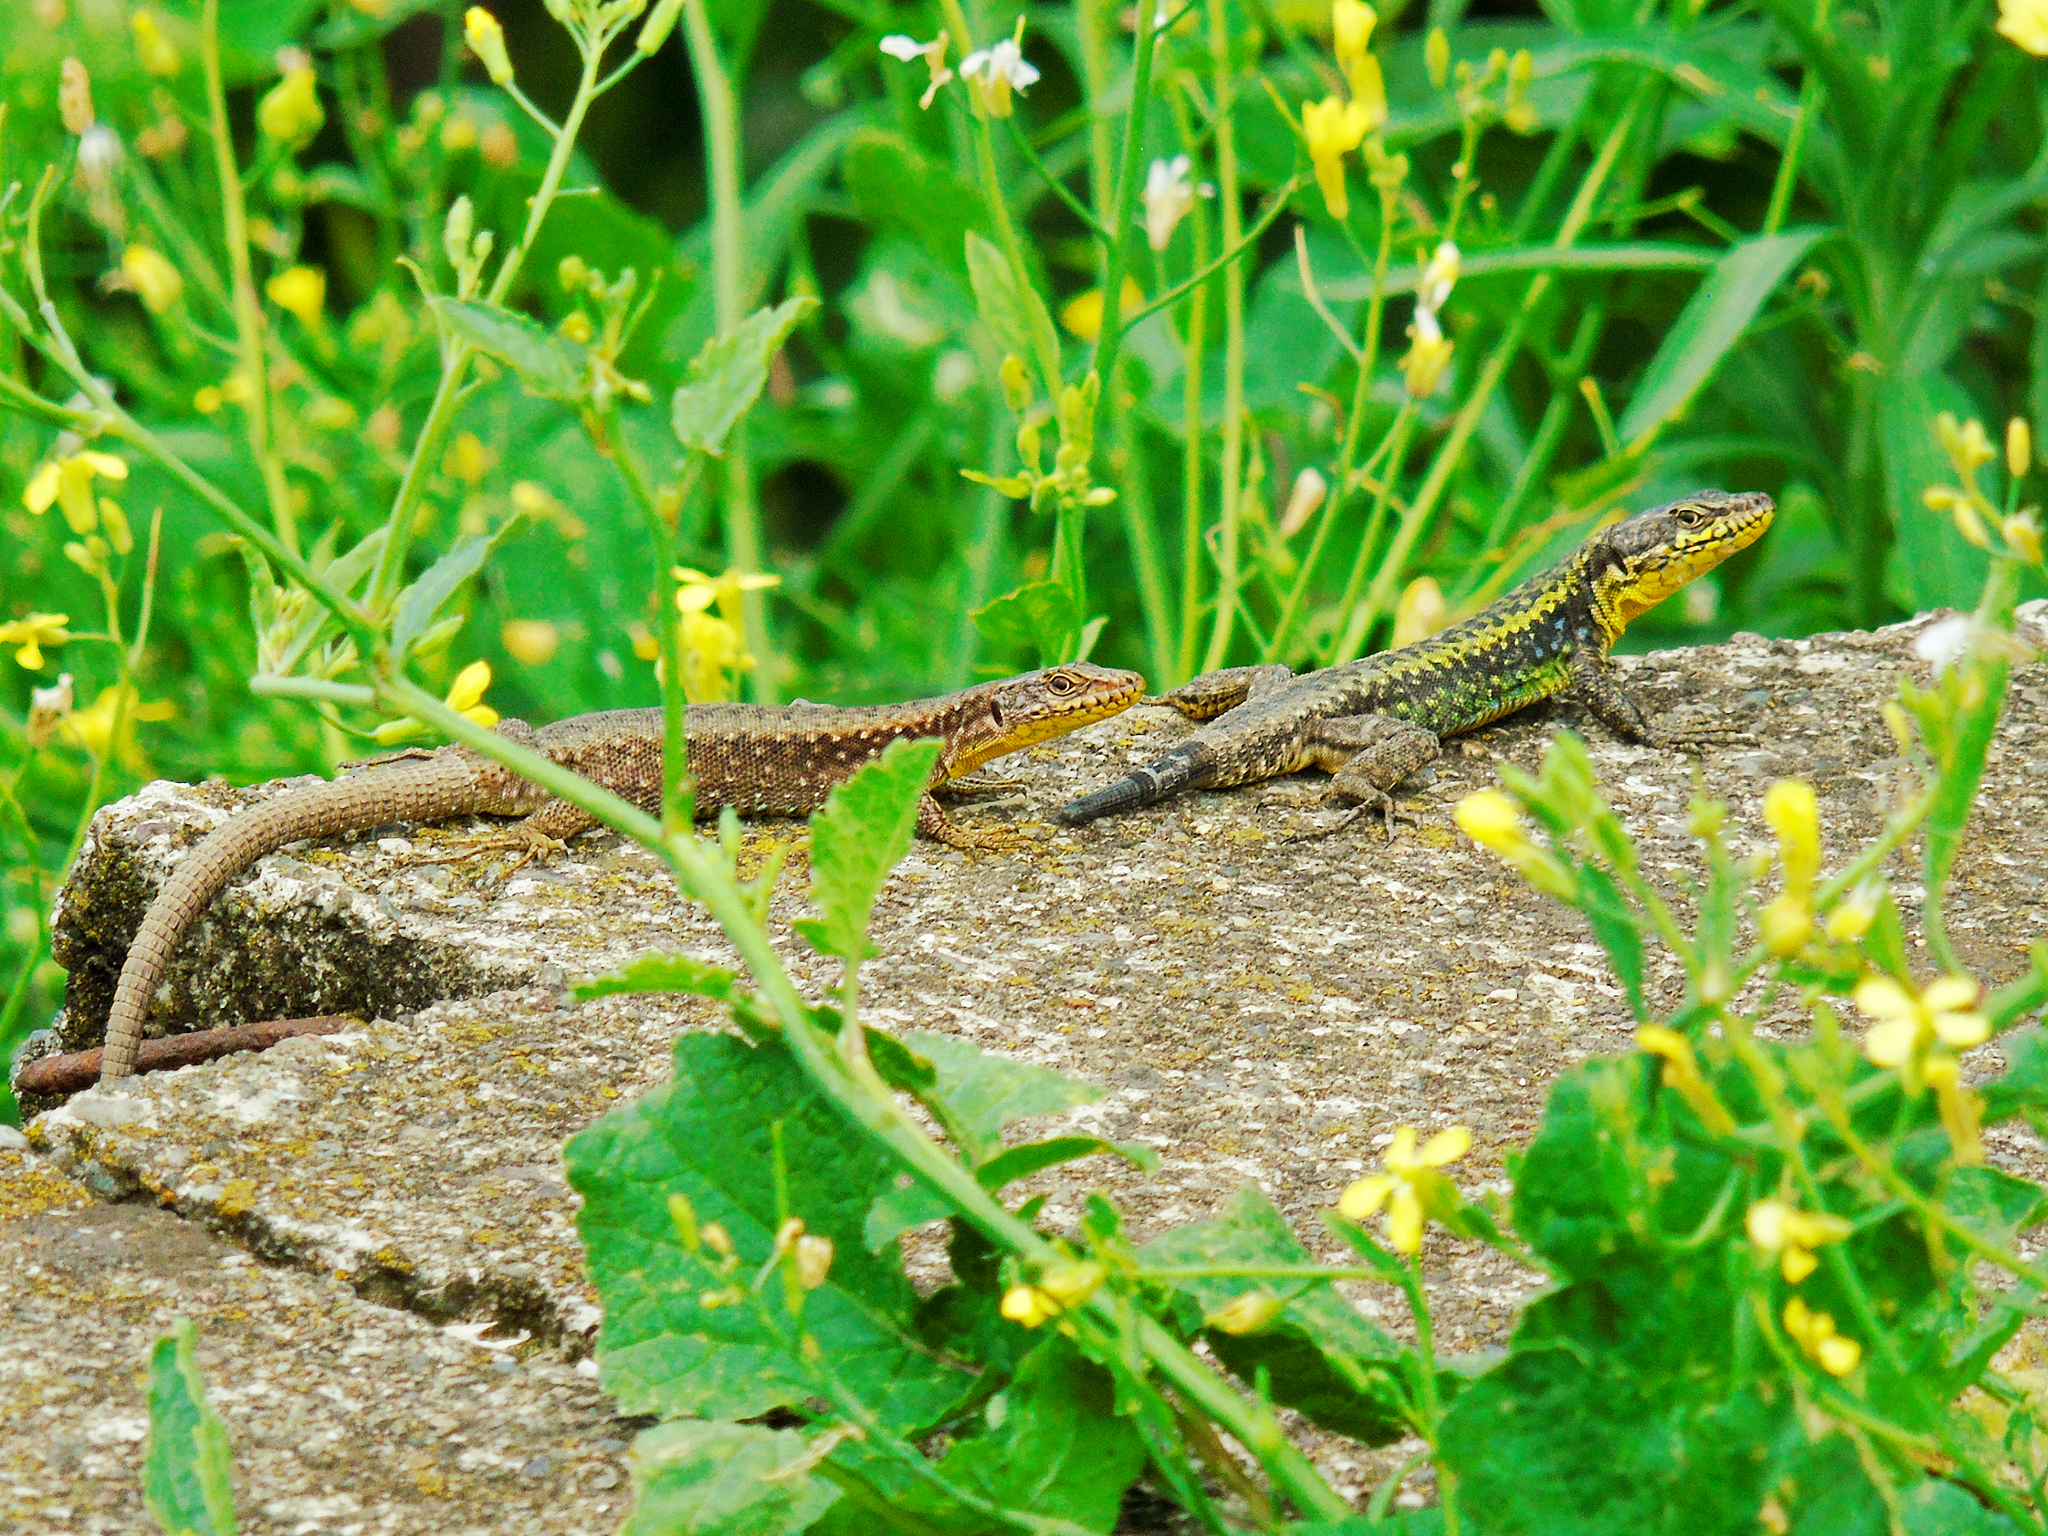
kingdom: Animalia
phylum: Chordata
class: Squamata
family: Lacertidae
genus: Darevskia
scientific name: Darevskia rudis
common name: Spiny-tailed lizard
